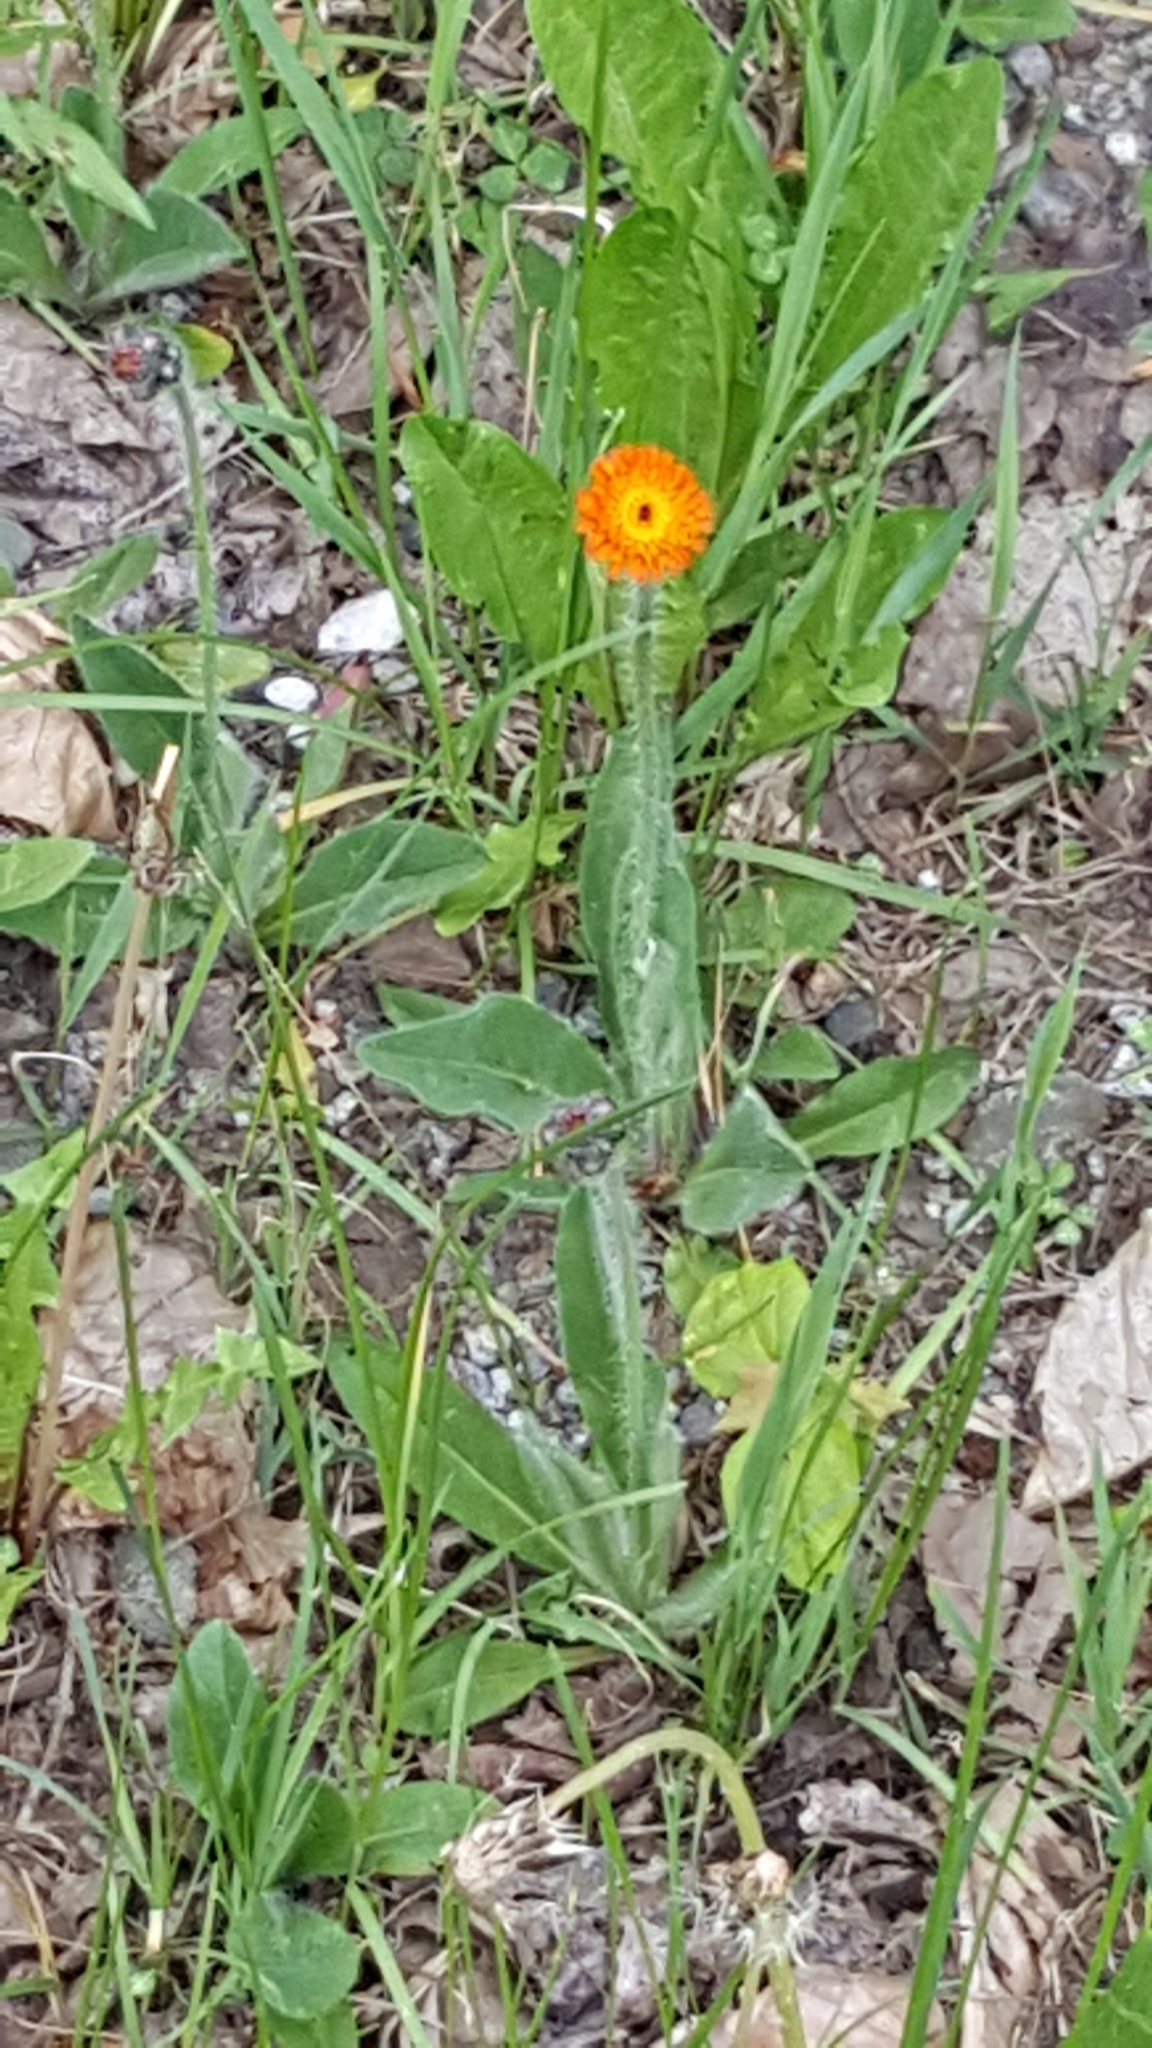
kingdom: Plantae
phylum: Tracheophyta
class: Magnoliopsida
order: Asterales
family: Asteraceae
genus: Pilosella
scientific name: Pilosella aurantiaca
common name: Fox-and-cubs
